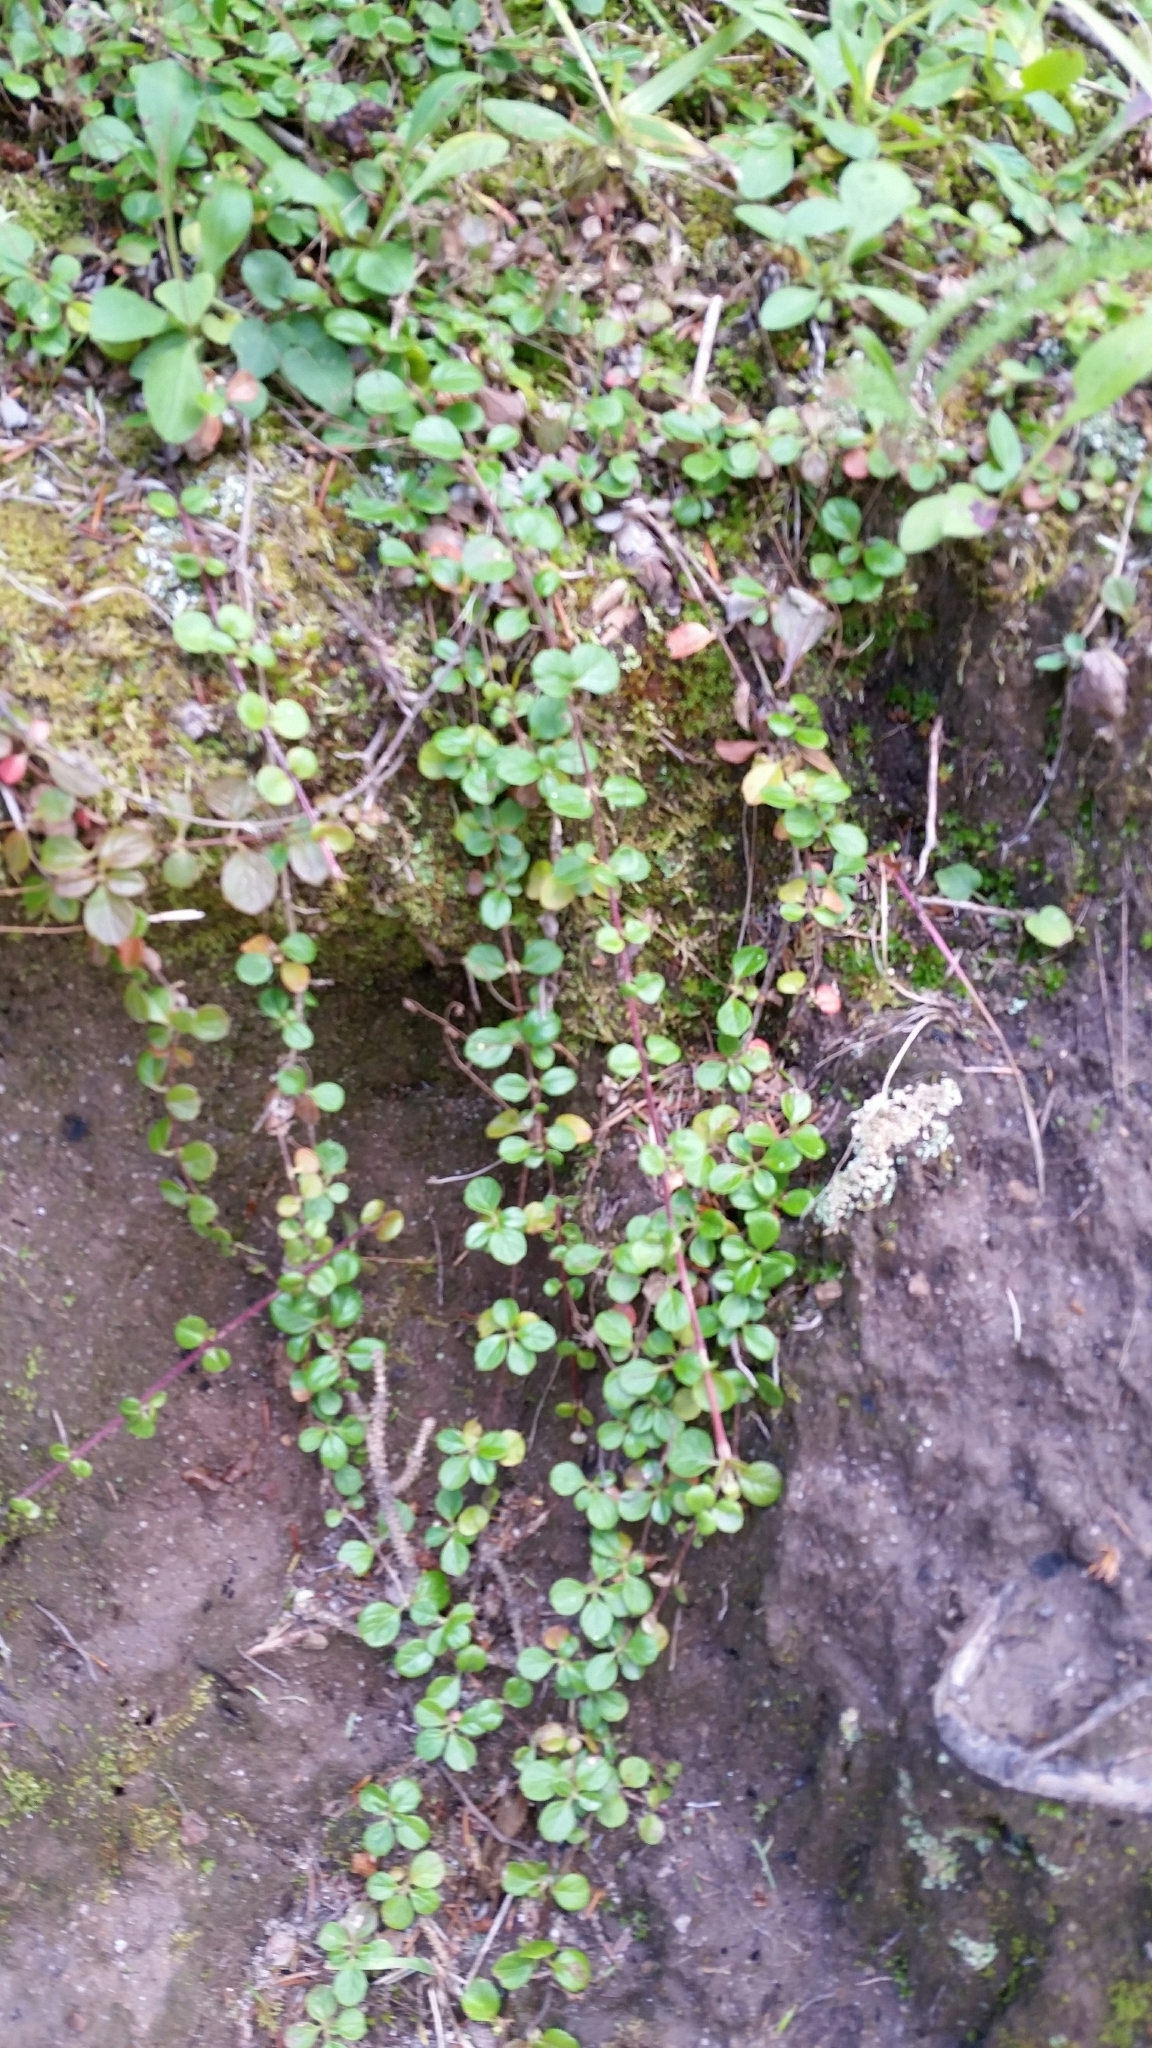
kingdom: Plantae
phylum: Tracheophyta
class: Magnoliopsida
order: Dipsacales
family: Caprifoliaceae
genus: Linnaea
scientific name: Linnaea borealis
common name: Twinflower
